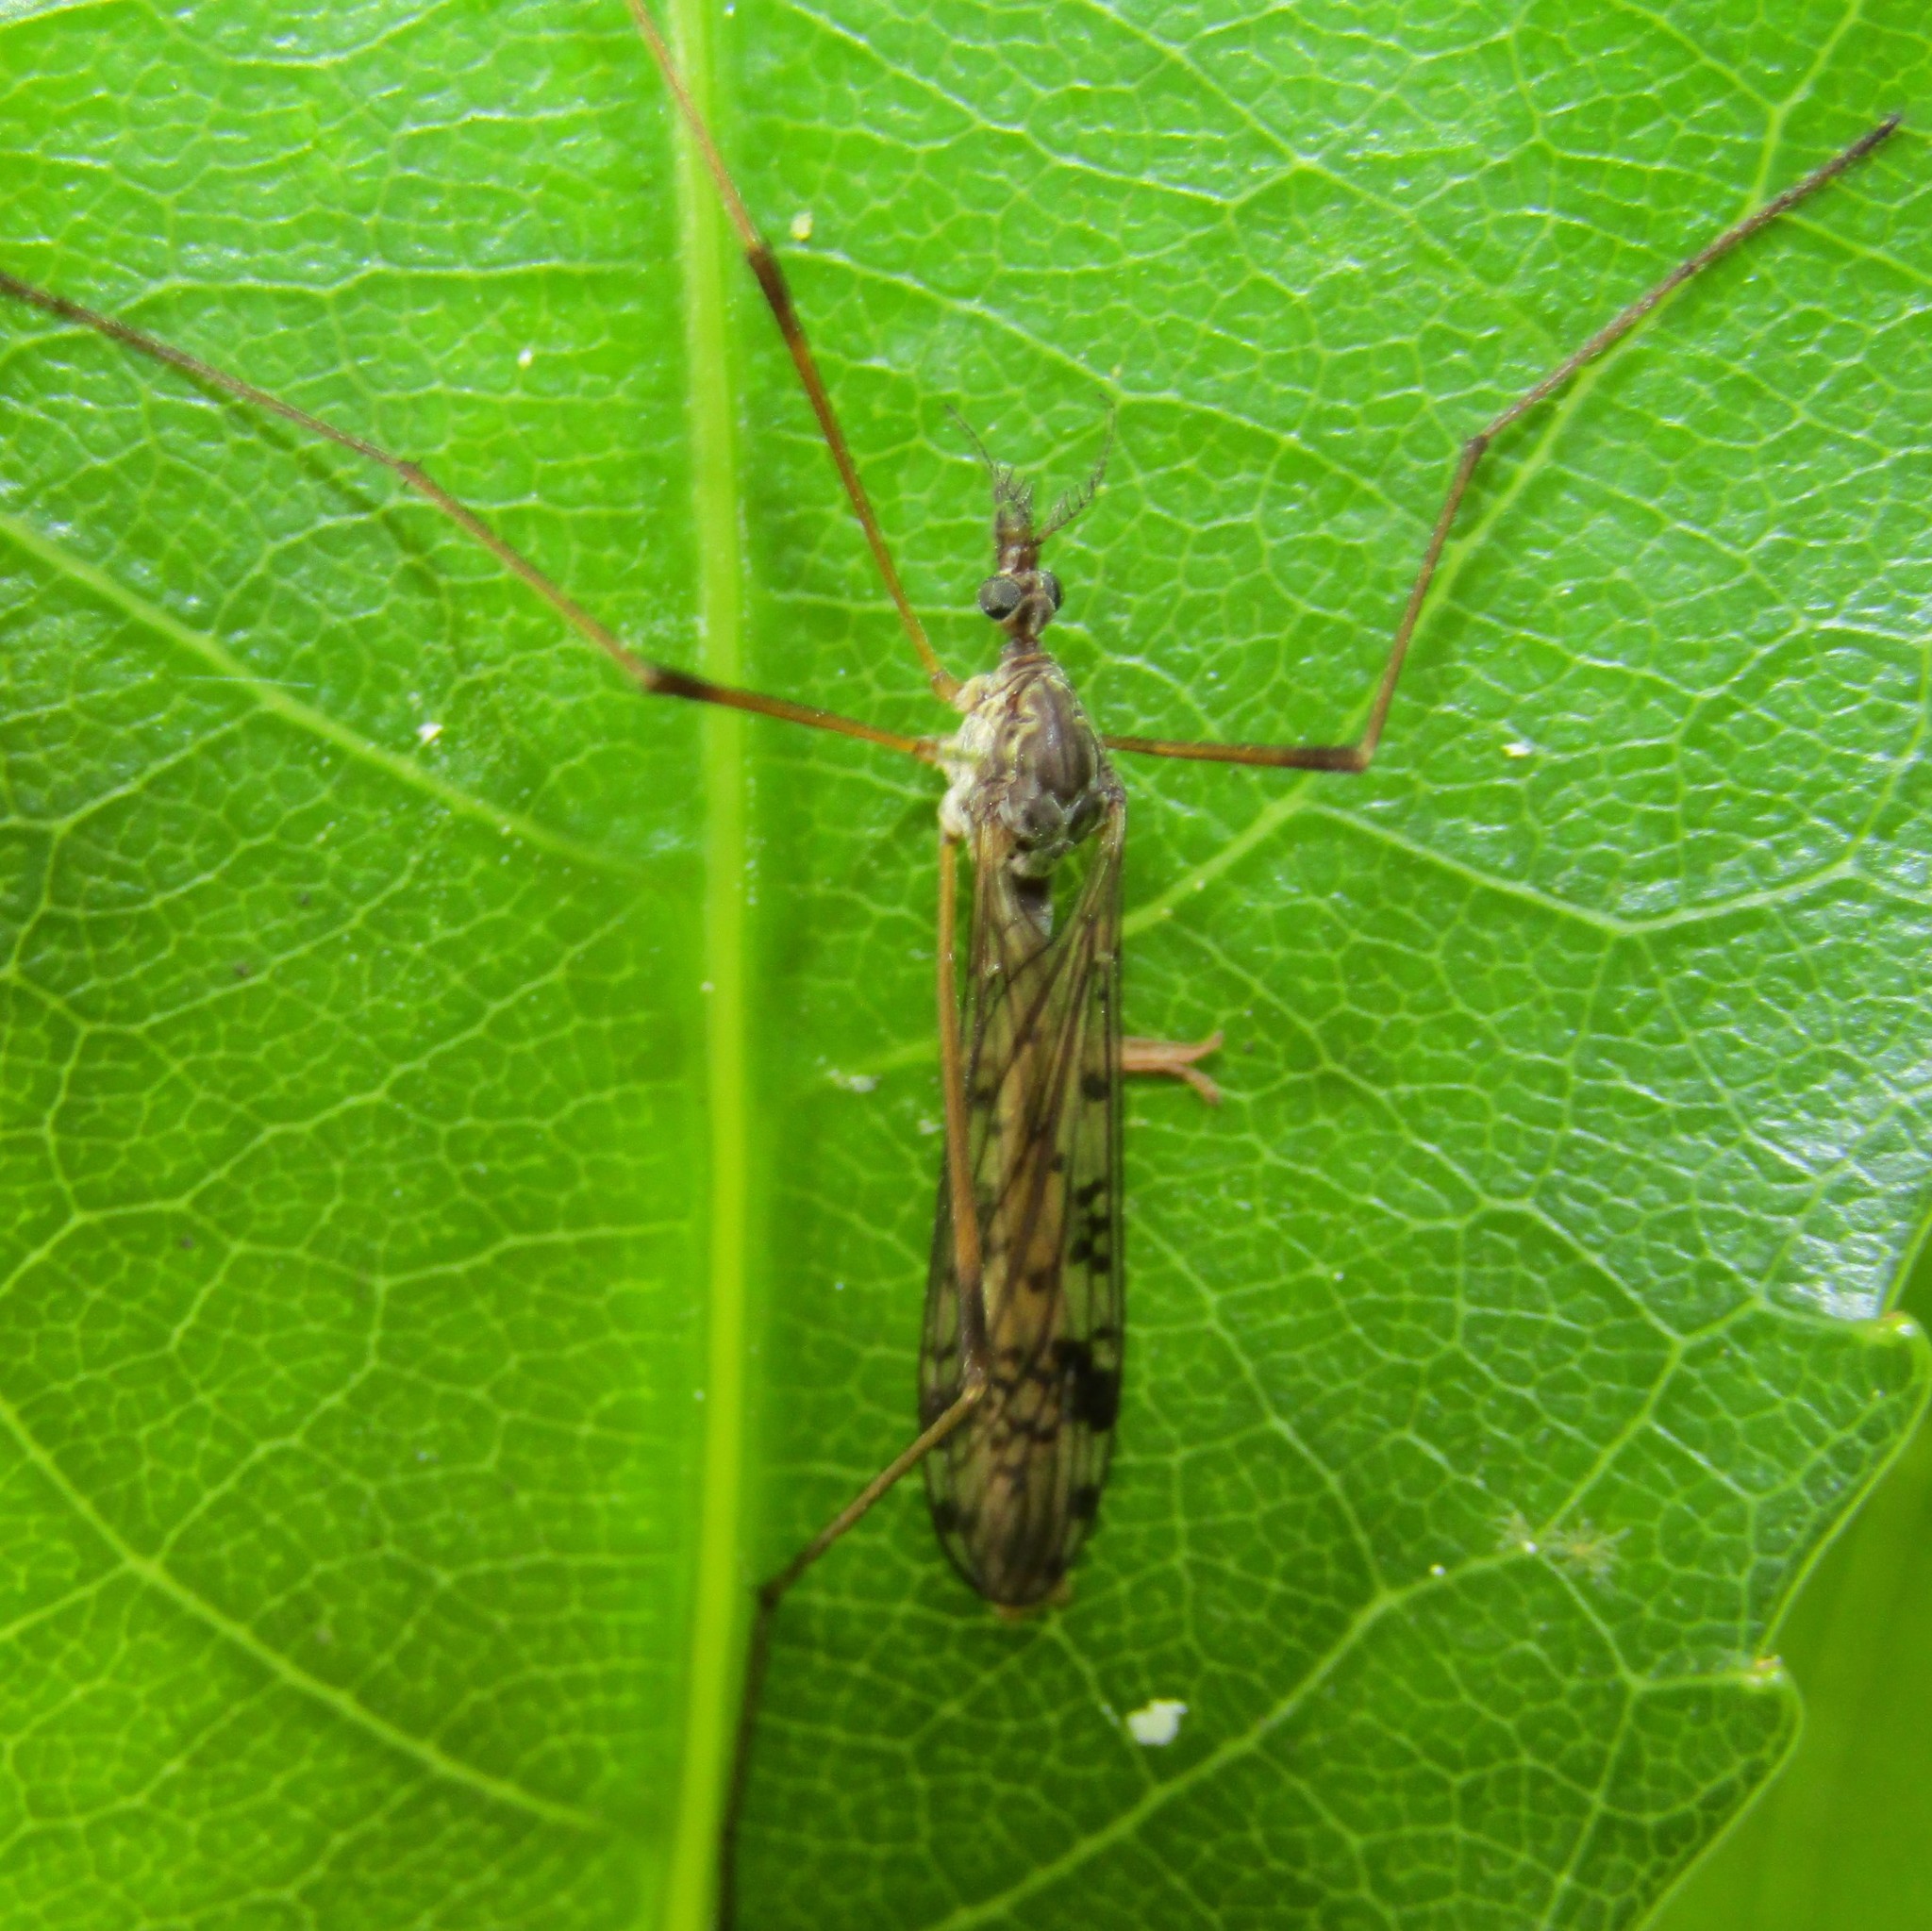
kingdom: Animalia
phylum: Arthropoda
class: Insecta
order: Diptera
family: Limoniidae
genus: Gynoplistia
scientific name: Gynoplistia notabilis
